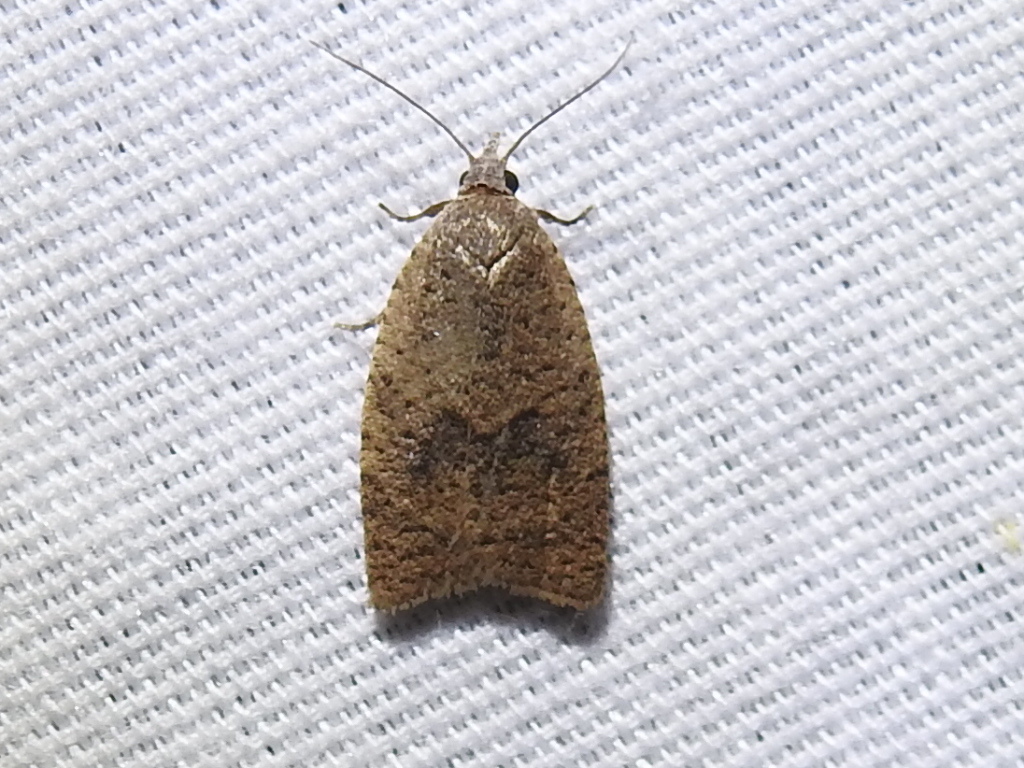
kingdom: Animalia
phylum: Arthropoda
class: Insecta
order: Lepidoptera
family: Tortricidae
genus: Sparganothoides
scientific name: Sparganothoides lentiginosana
